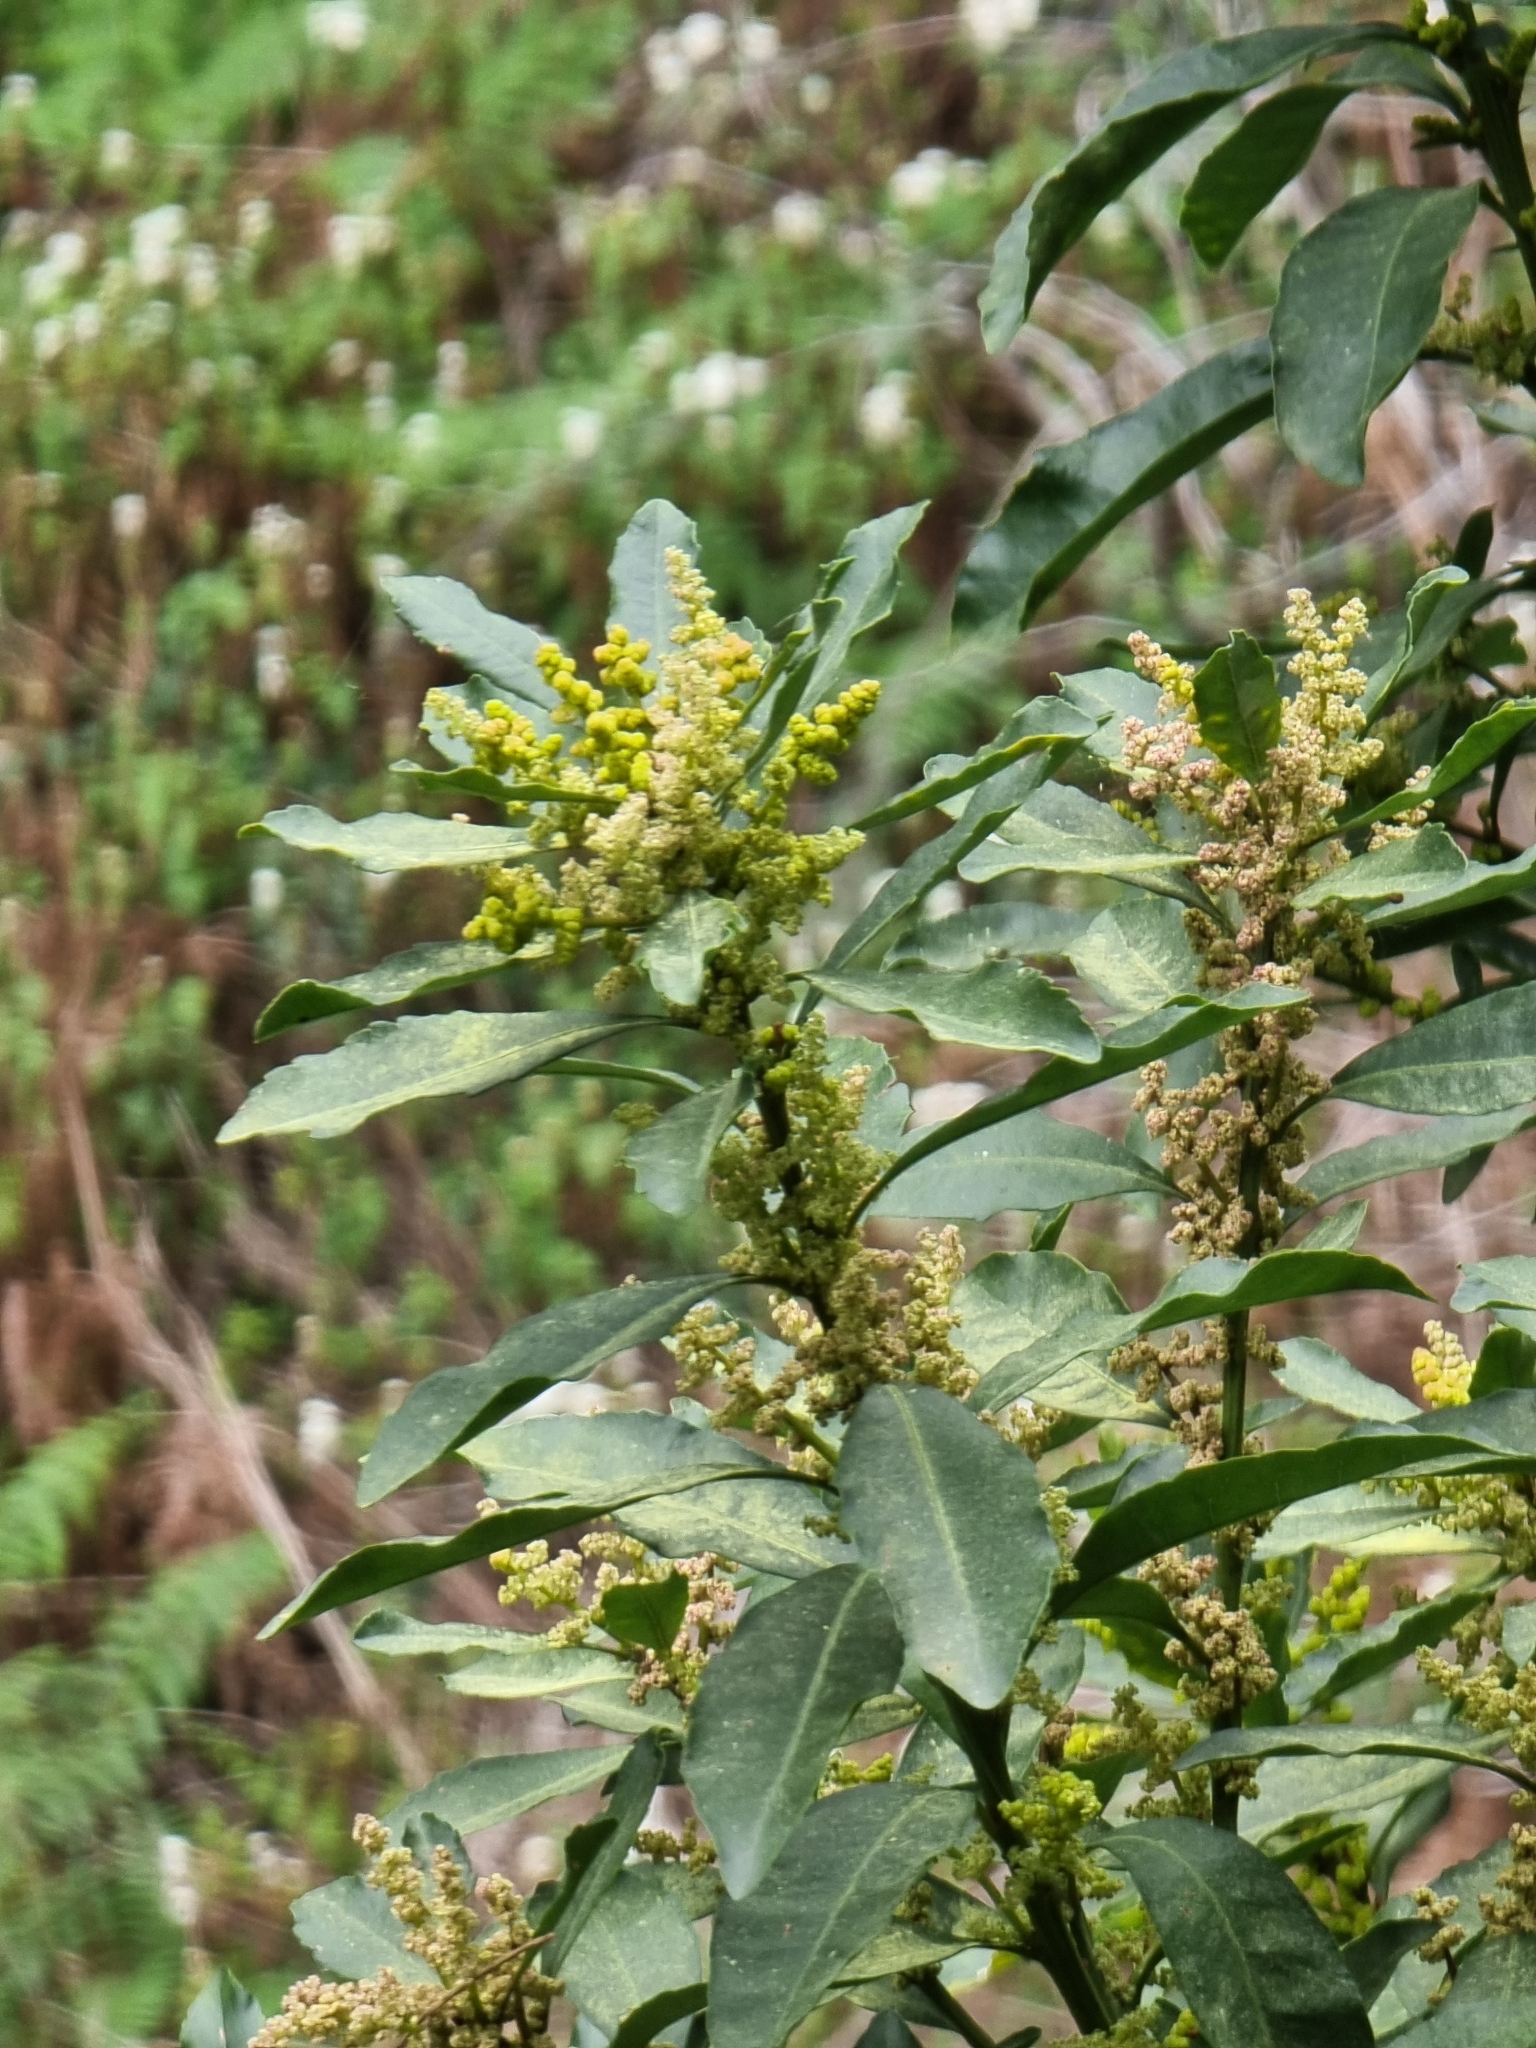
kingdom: Plantae
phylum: Tracheophyta
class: Magnoliopsida
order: Fagales
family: Myricaceae
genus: Morella
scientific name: Morella faya
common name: Firetree
